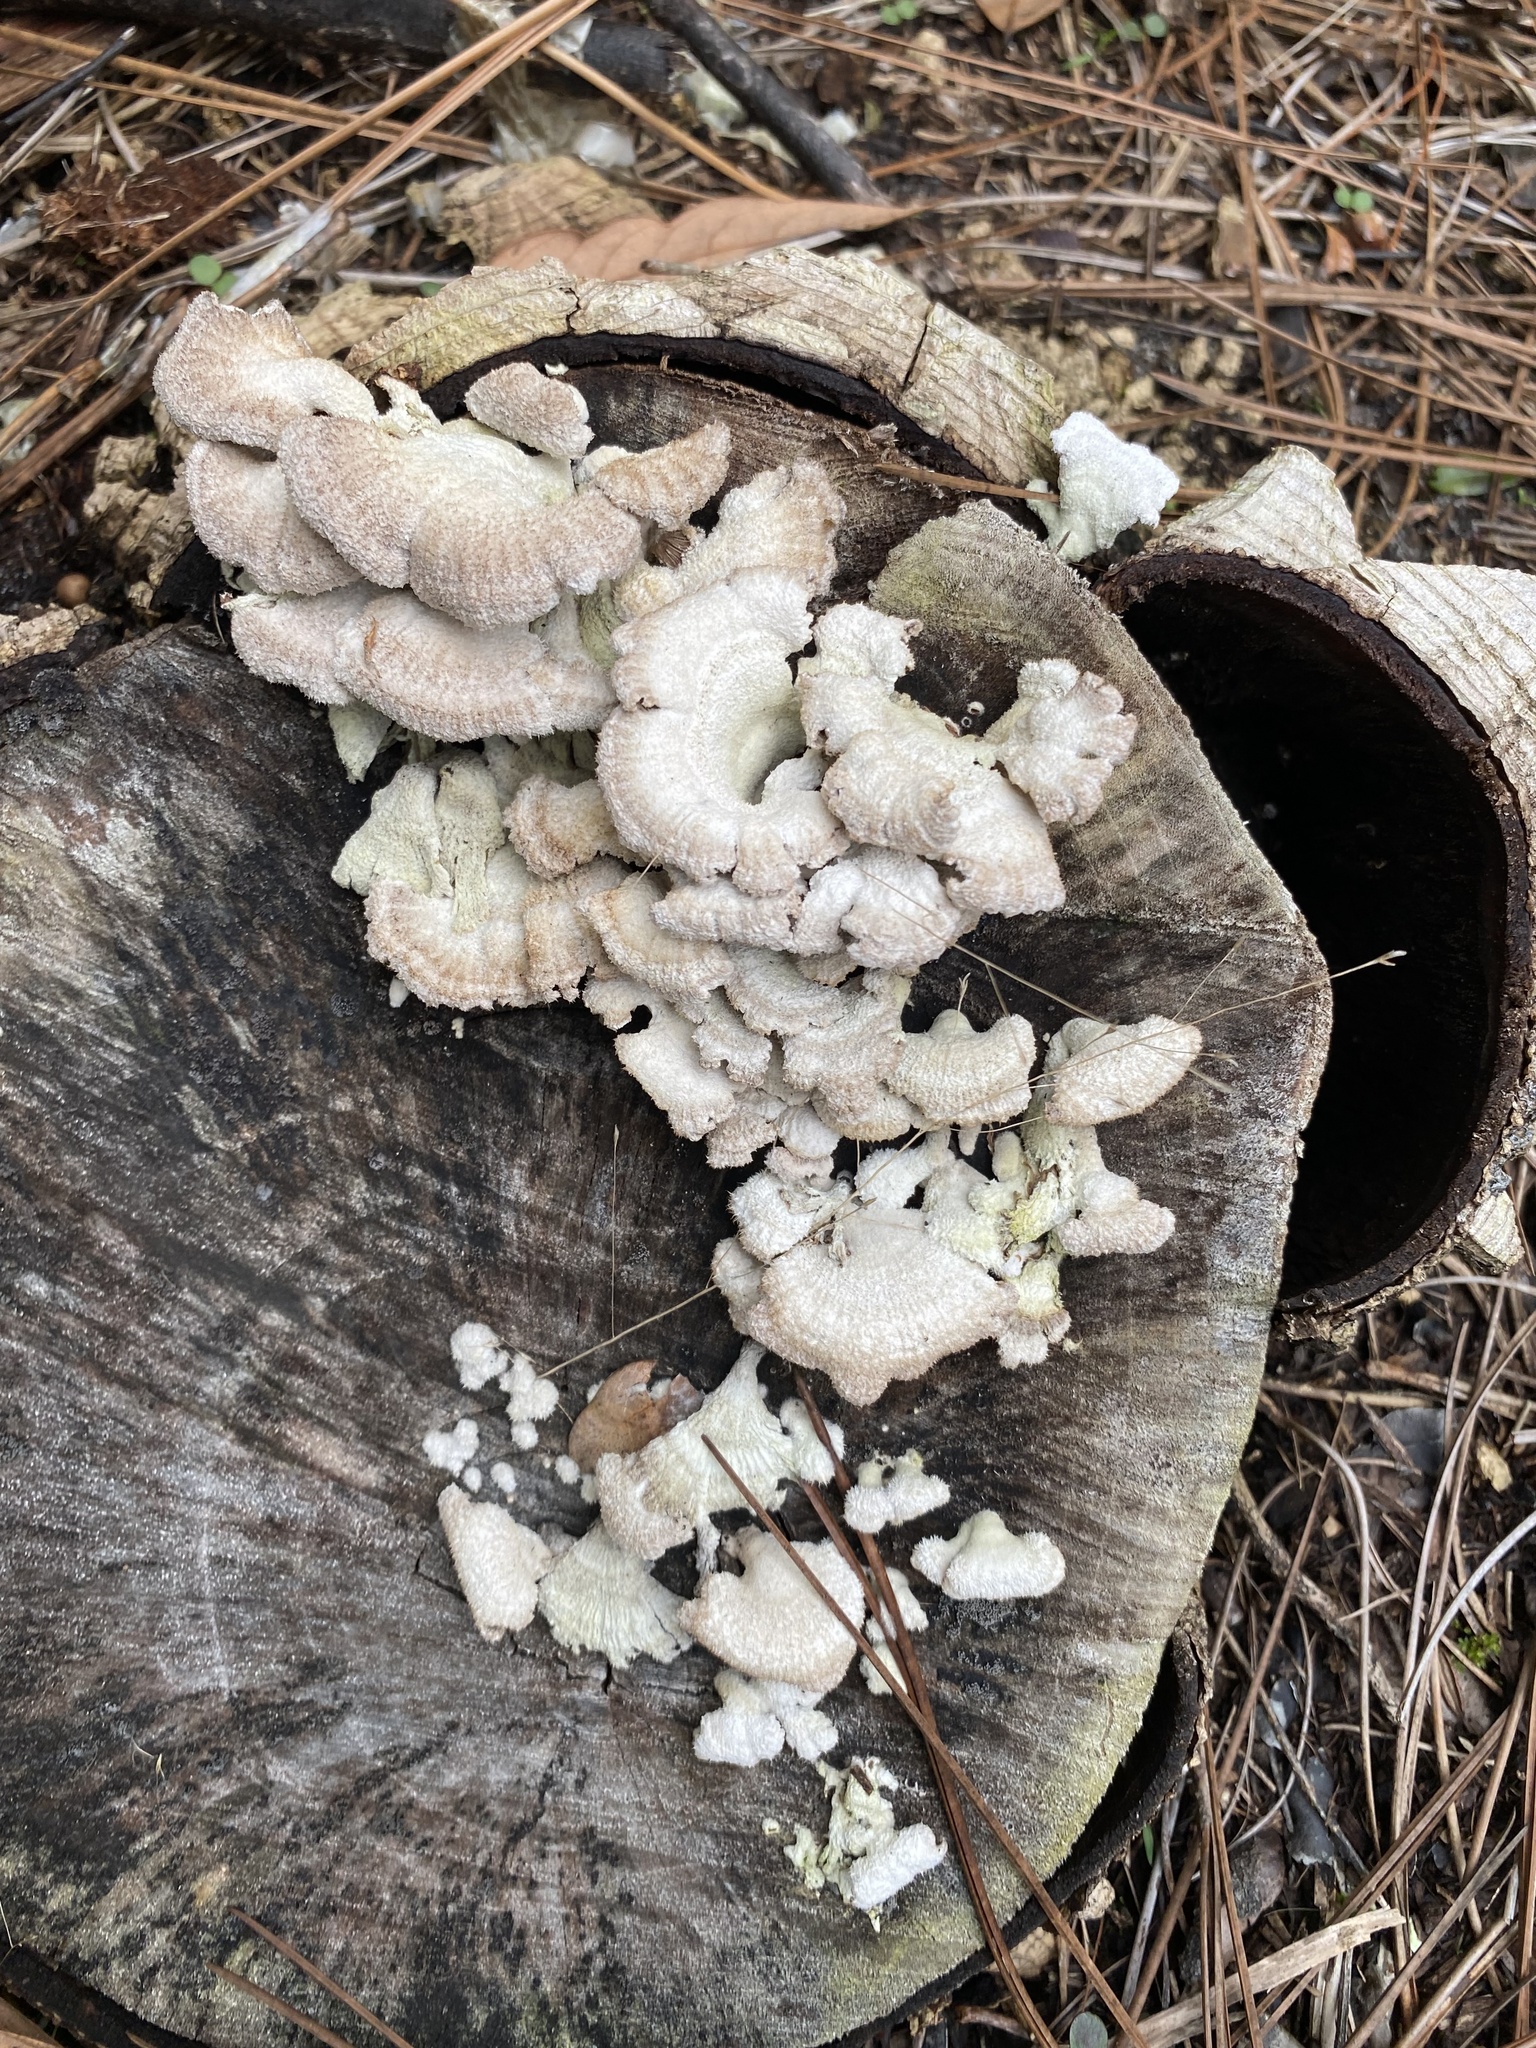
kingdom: Fungi
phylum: Basidiomycota
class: Agaricomycetes
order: Agaricales
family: Schizophyllaceae
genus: Schizophyllum
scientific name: Schizophyllum commune
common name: Common porecrust
